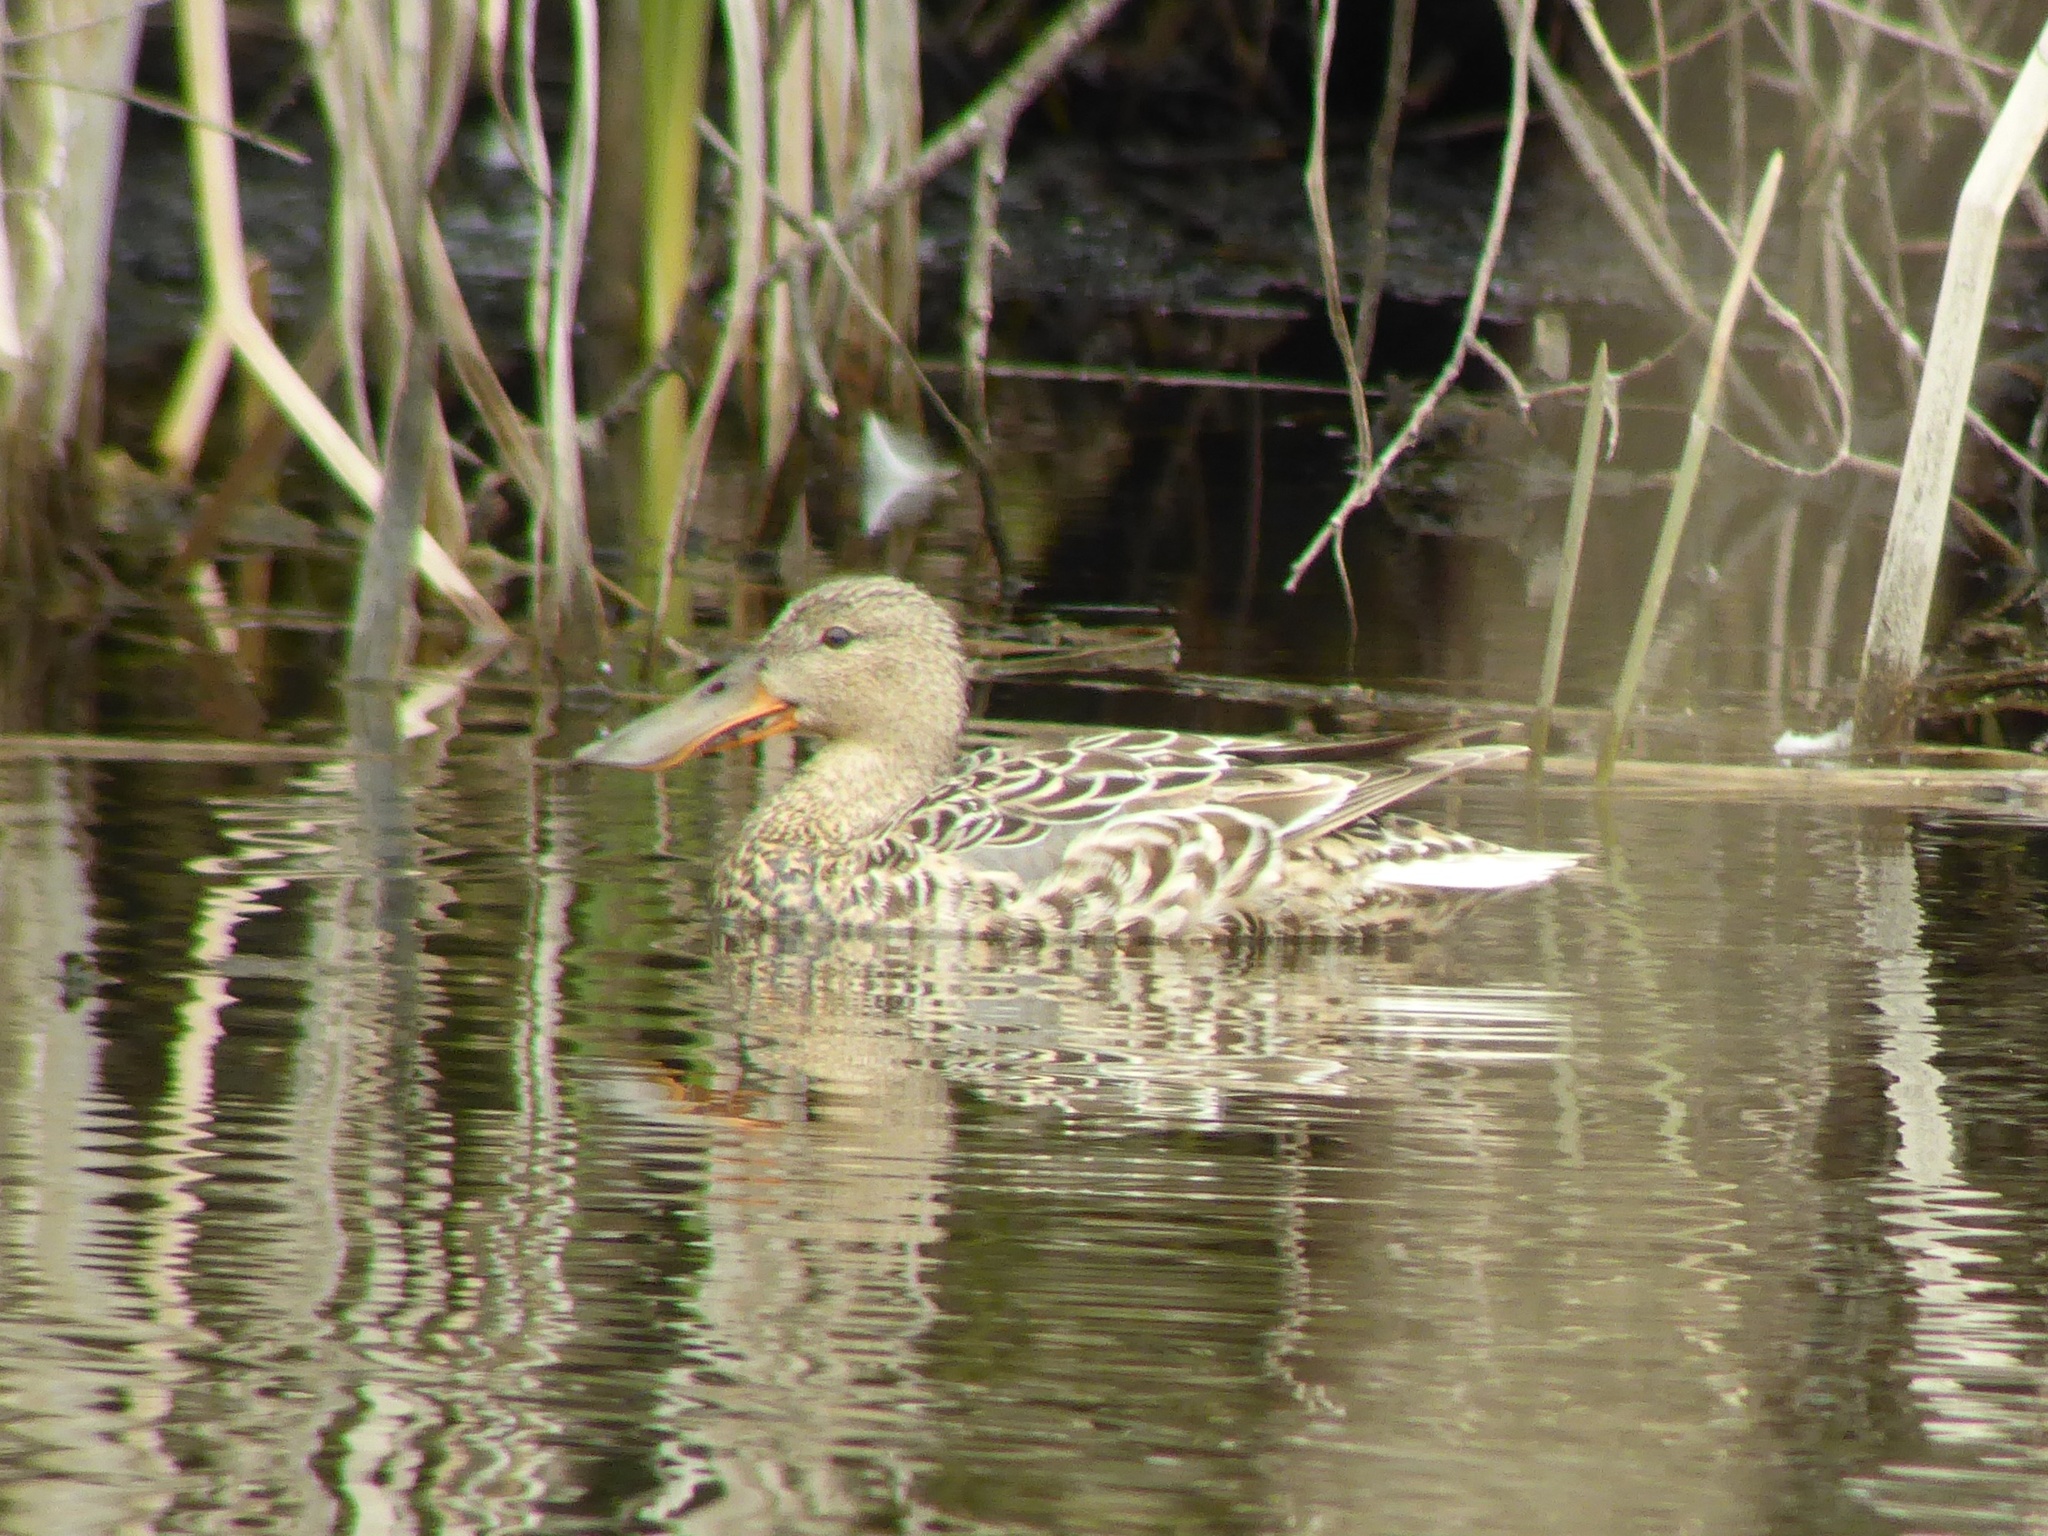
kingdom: Animalia
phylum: Chordata
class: Aves
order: Anseriformes
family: Anatidae
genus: Spatula
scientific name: Spatula clypeata
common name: Northern shoveler
